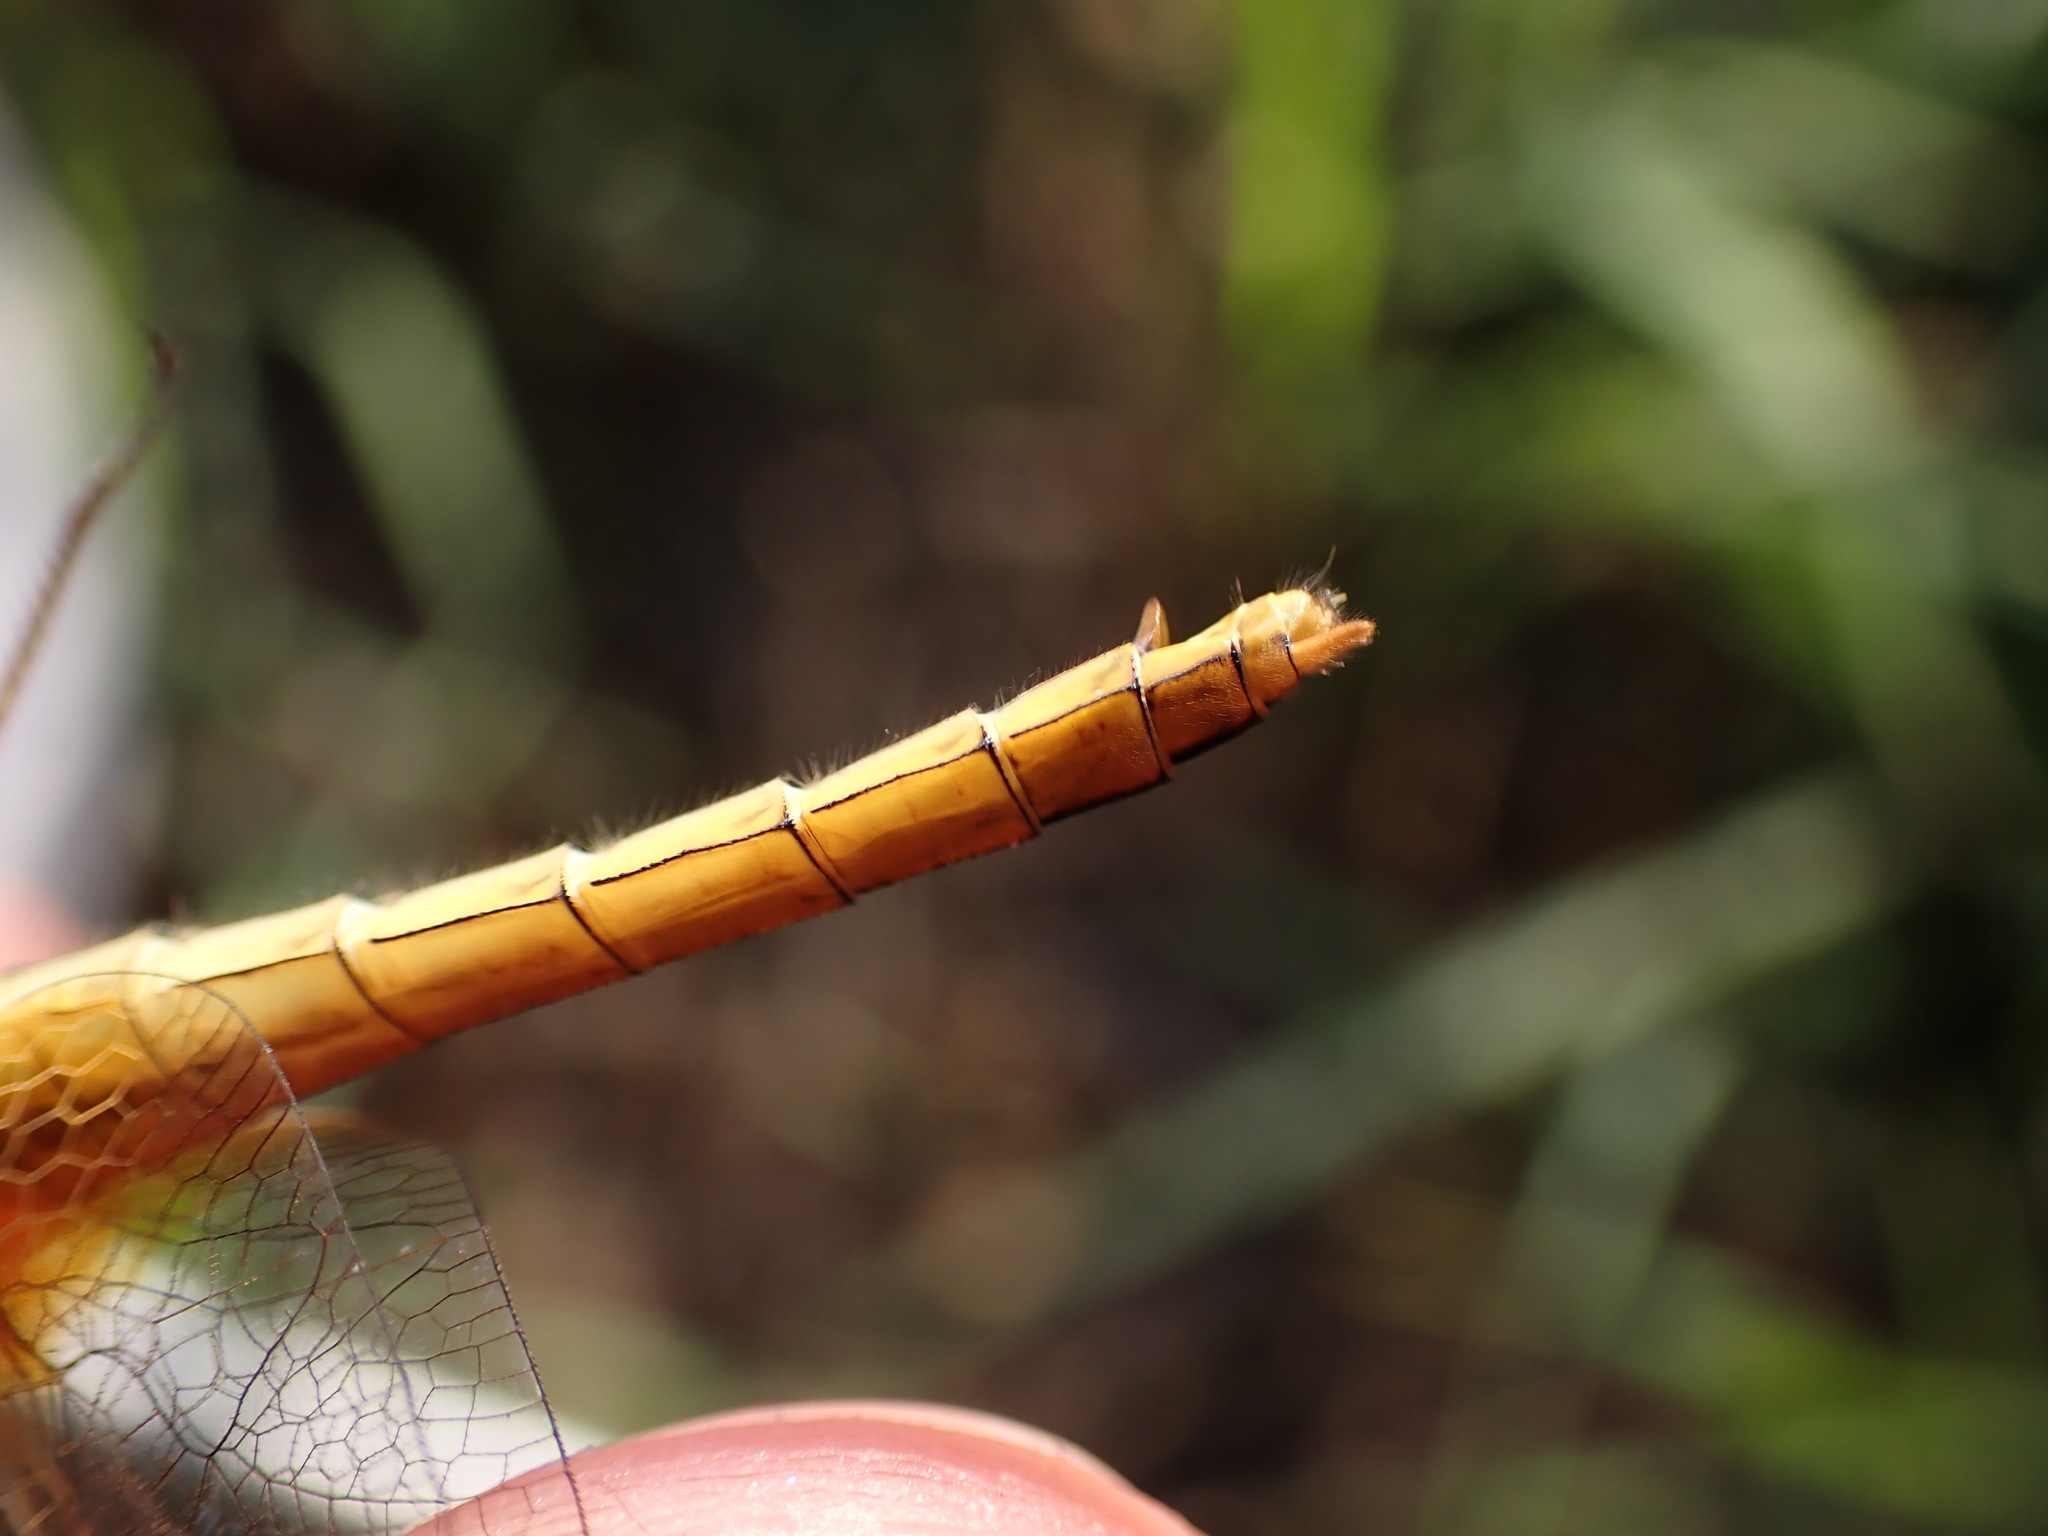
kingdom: Animalia
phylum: Arthropoda
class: Insecta
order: Odonata
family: Libellulidae
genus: Crocothemis
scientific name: Crocothemis erythraea
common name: Scarlet dragonfly
